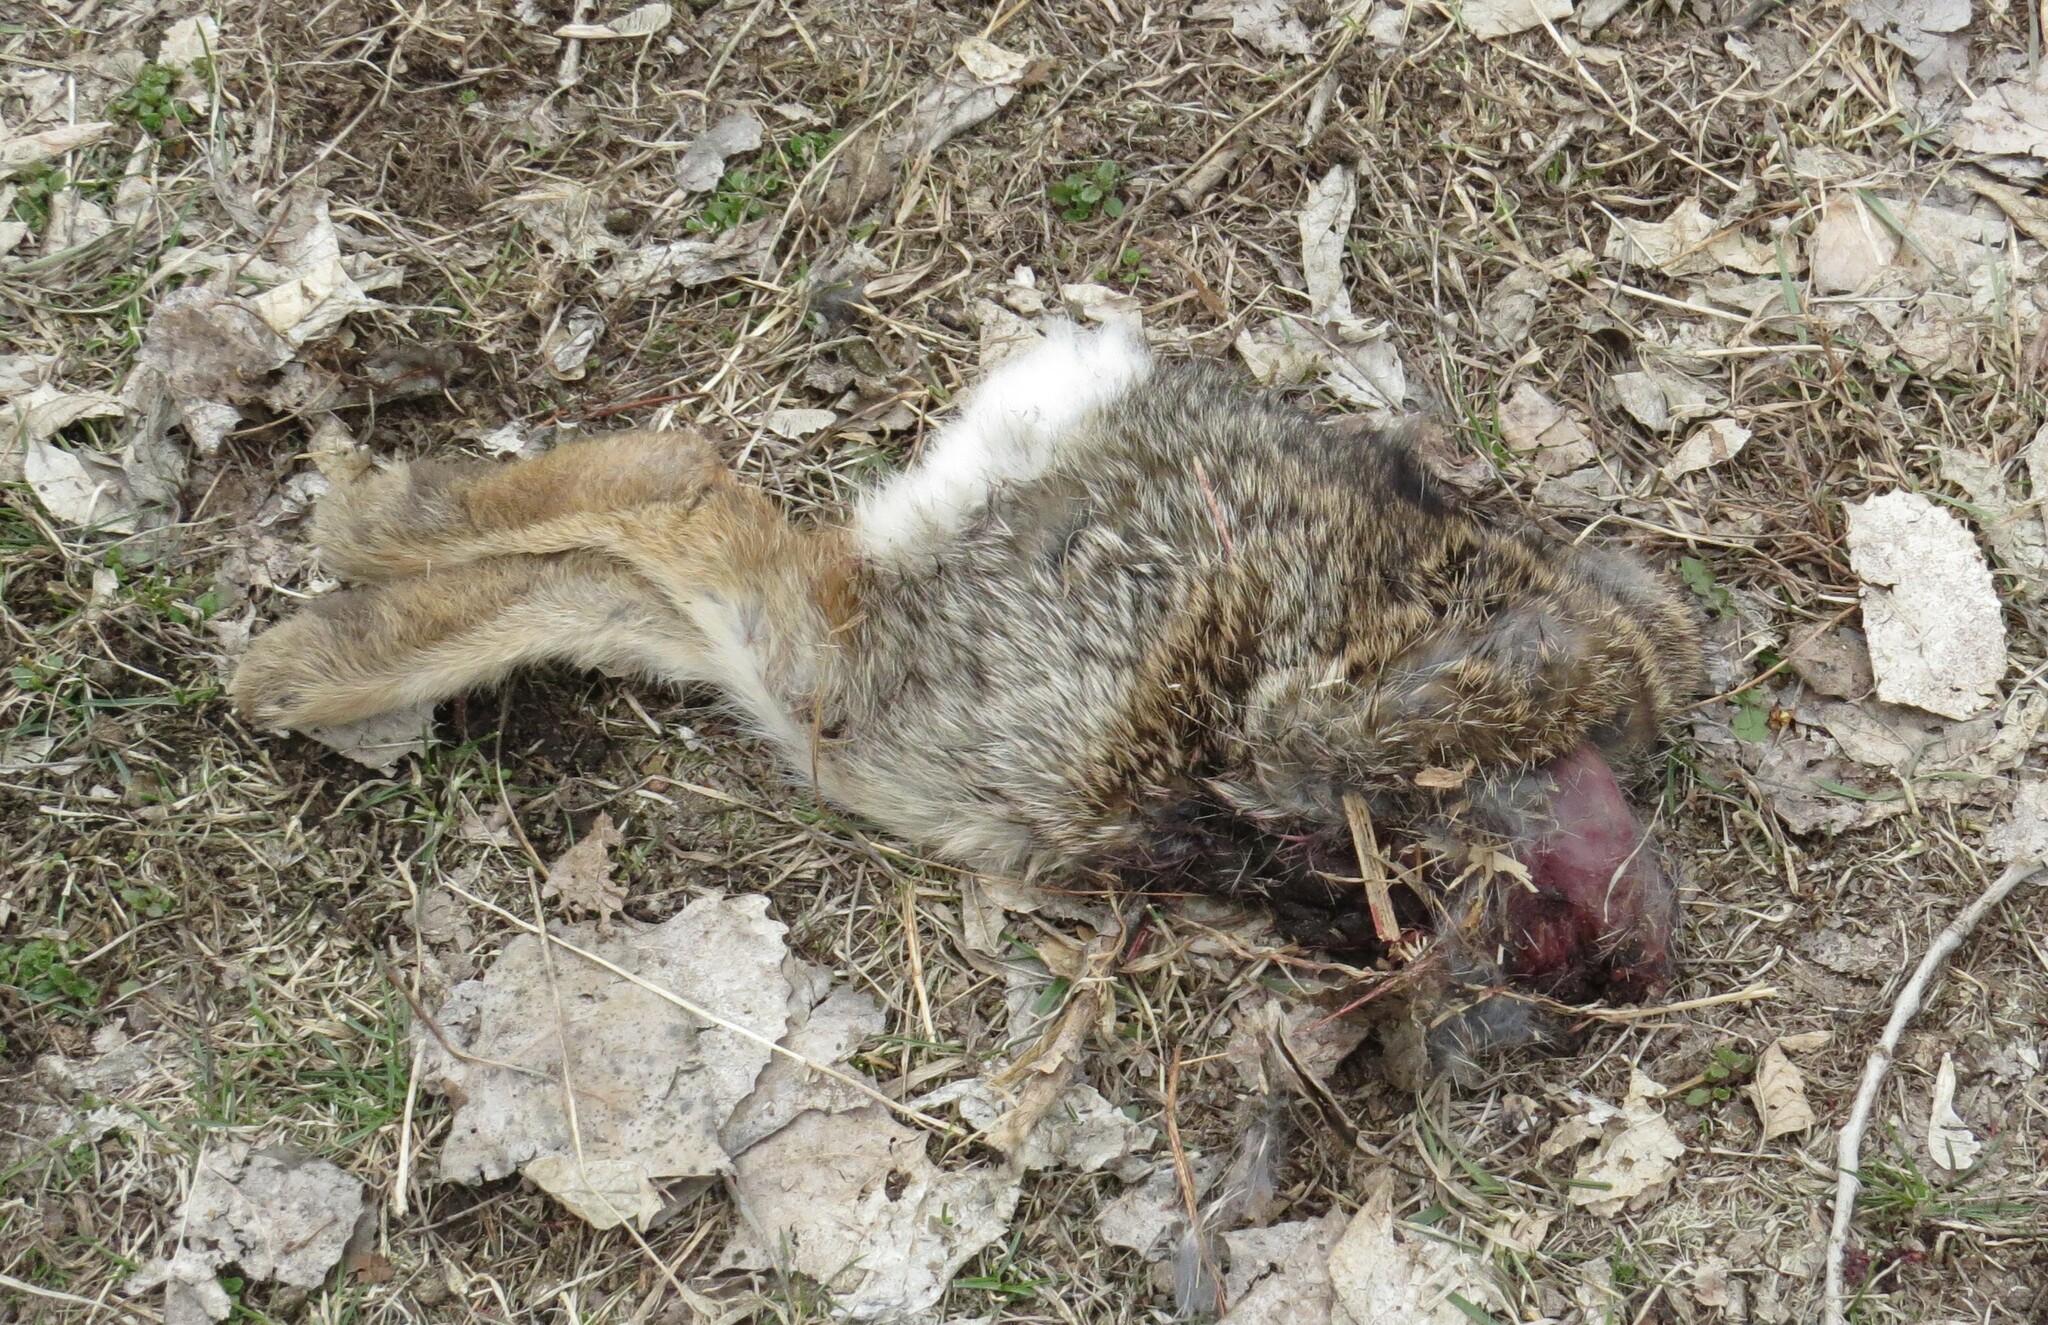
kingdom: Animalia
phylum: Chordata
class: Mammalia
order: Lagomorpha
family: Leporidae
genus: Sylvilagus
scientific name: Sylvilagus floridanus
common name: Eastern cottontail
